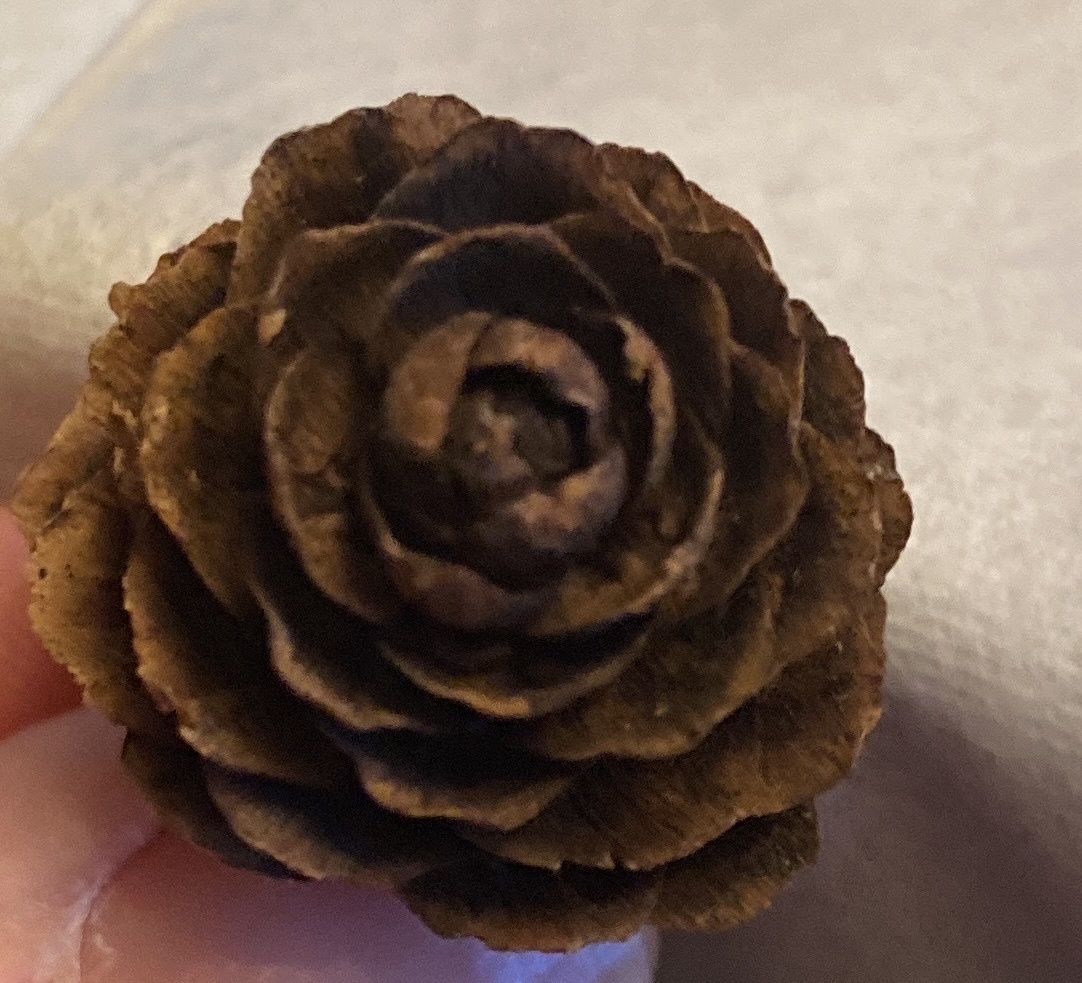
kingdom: Plantae
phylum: Tracheophyta
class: Pinopsida
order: Pinales
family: Pinaceae
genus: Larix
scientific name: Larix decidua
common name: European larch
